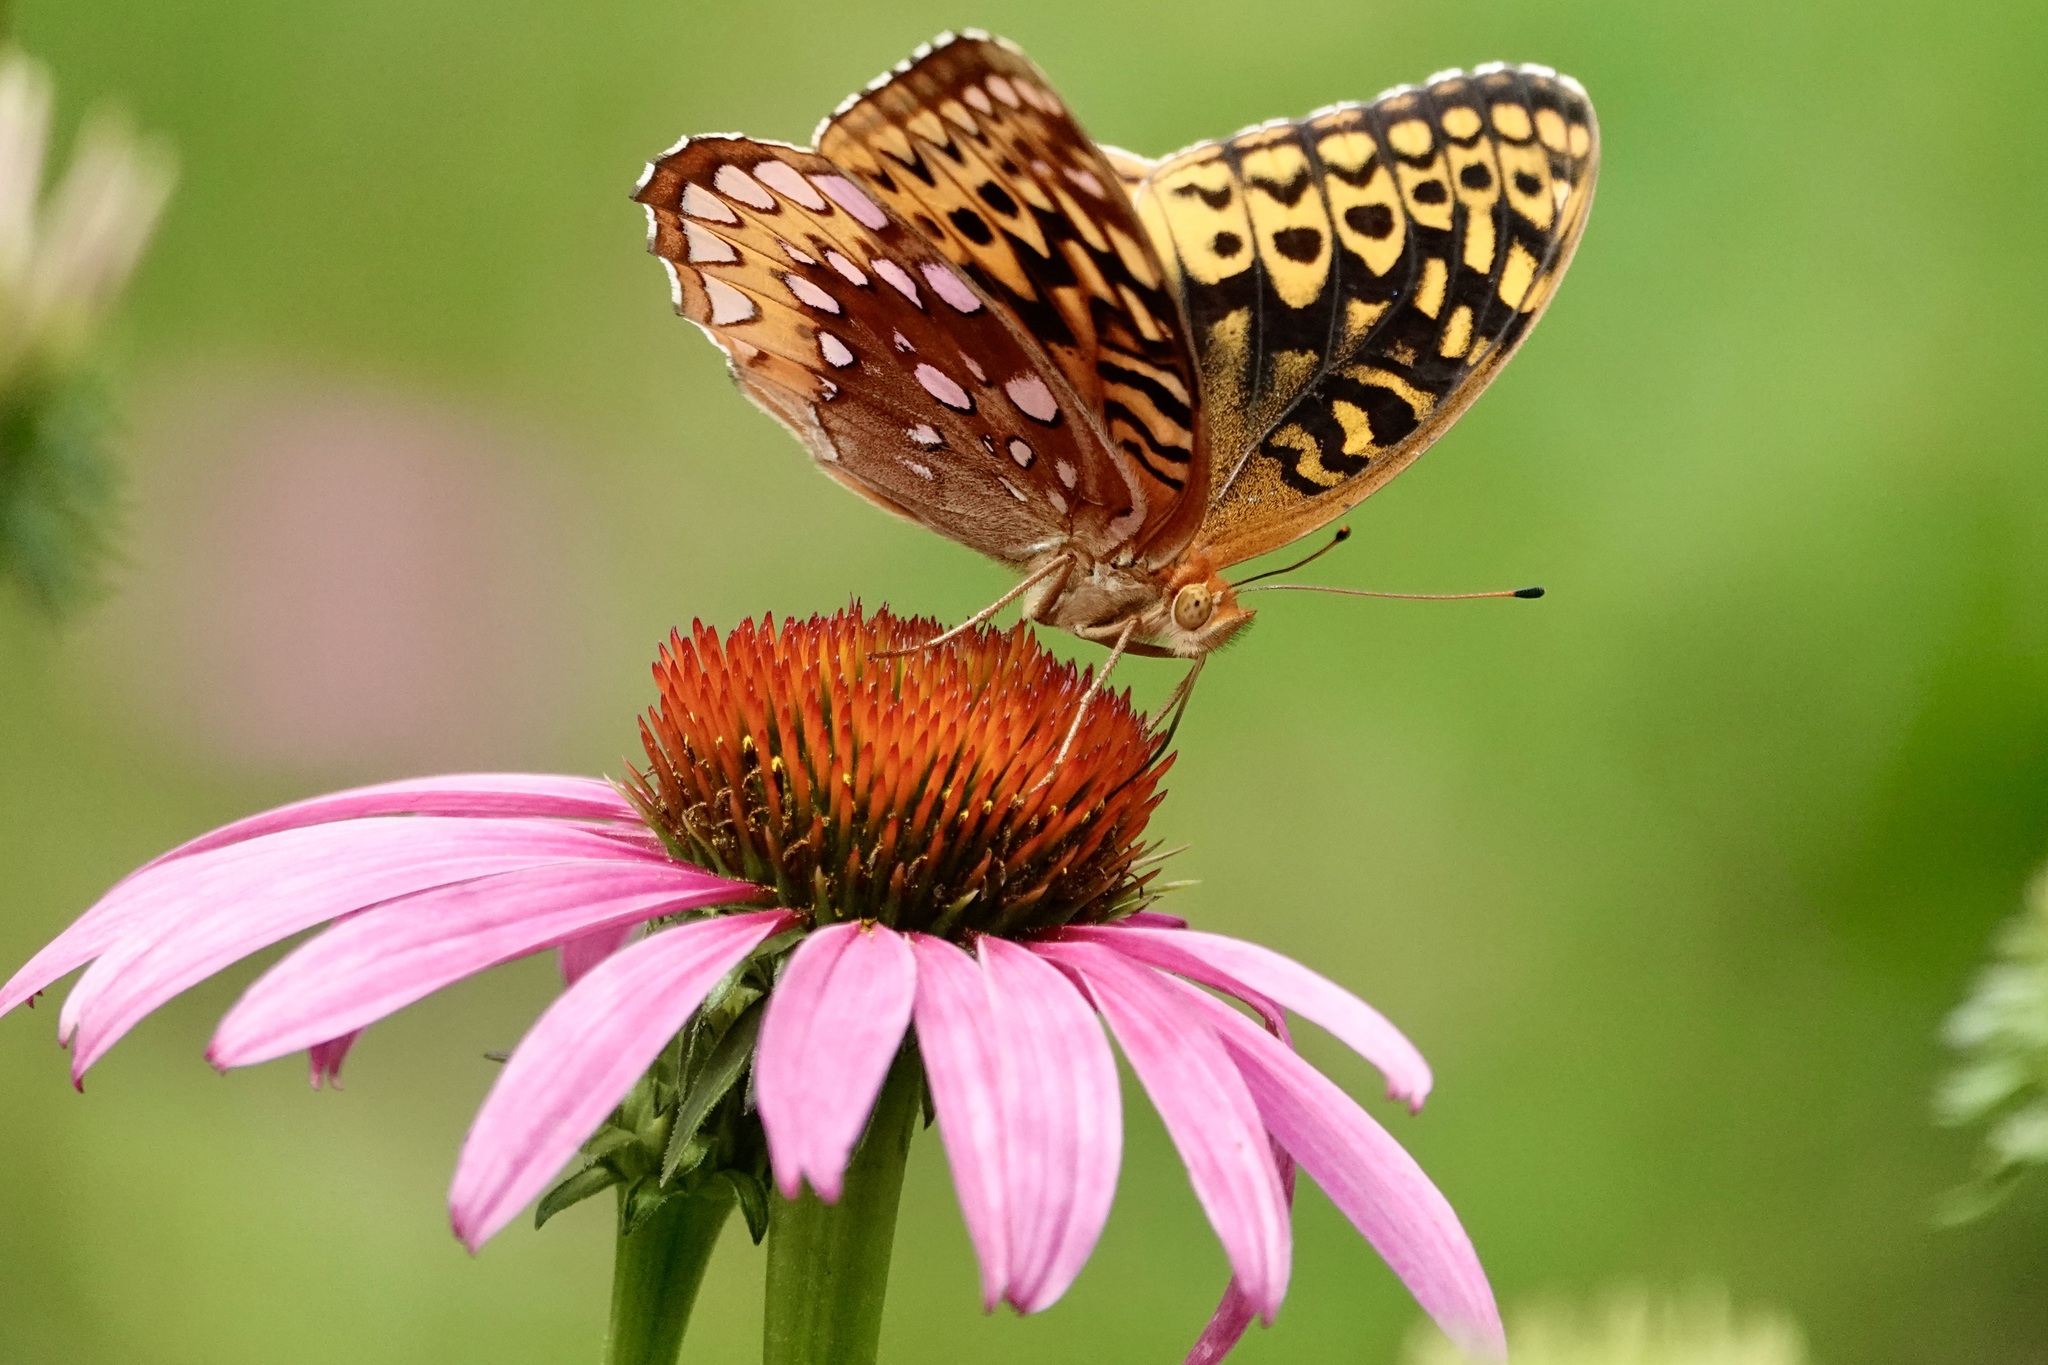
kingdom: Animalia
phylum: Arthropoda
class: Insecta
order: Lepidoptera
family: Nymphalidae
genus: Speyeria
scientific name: Speyeria cybele
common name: Great spangled fritillary
